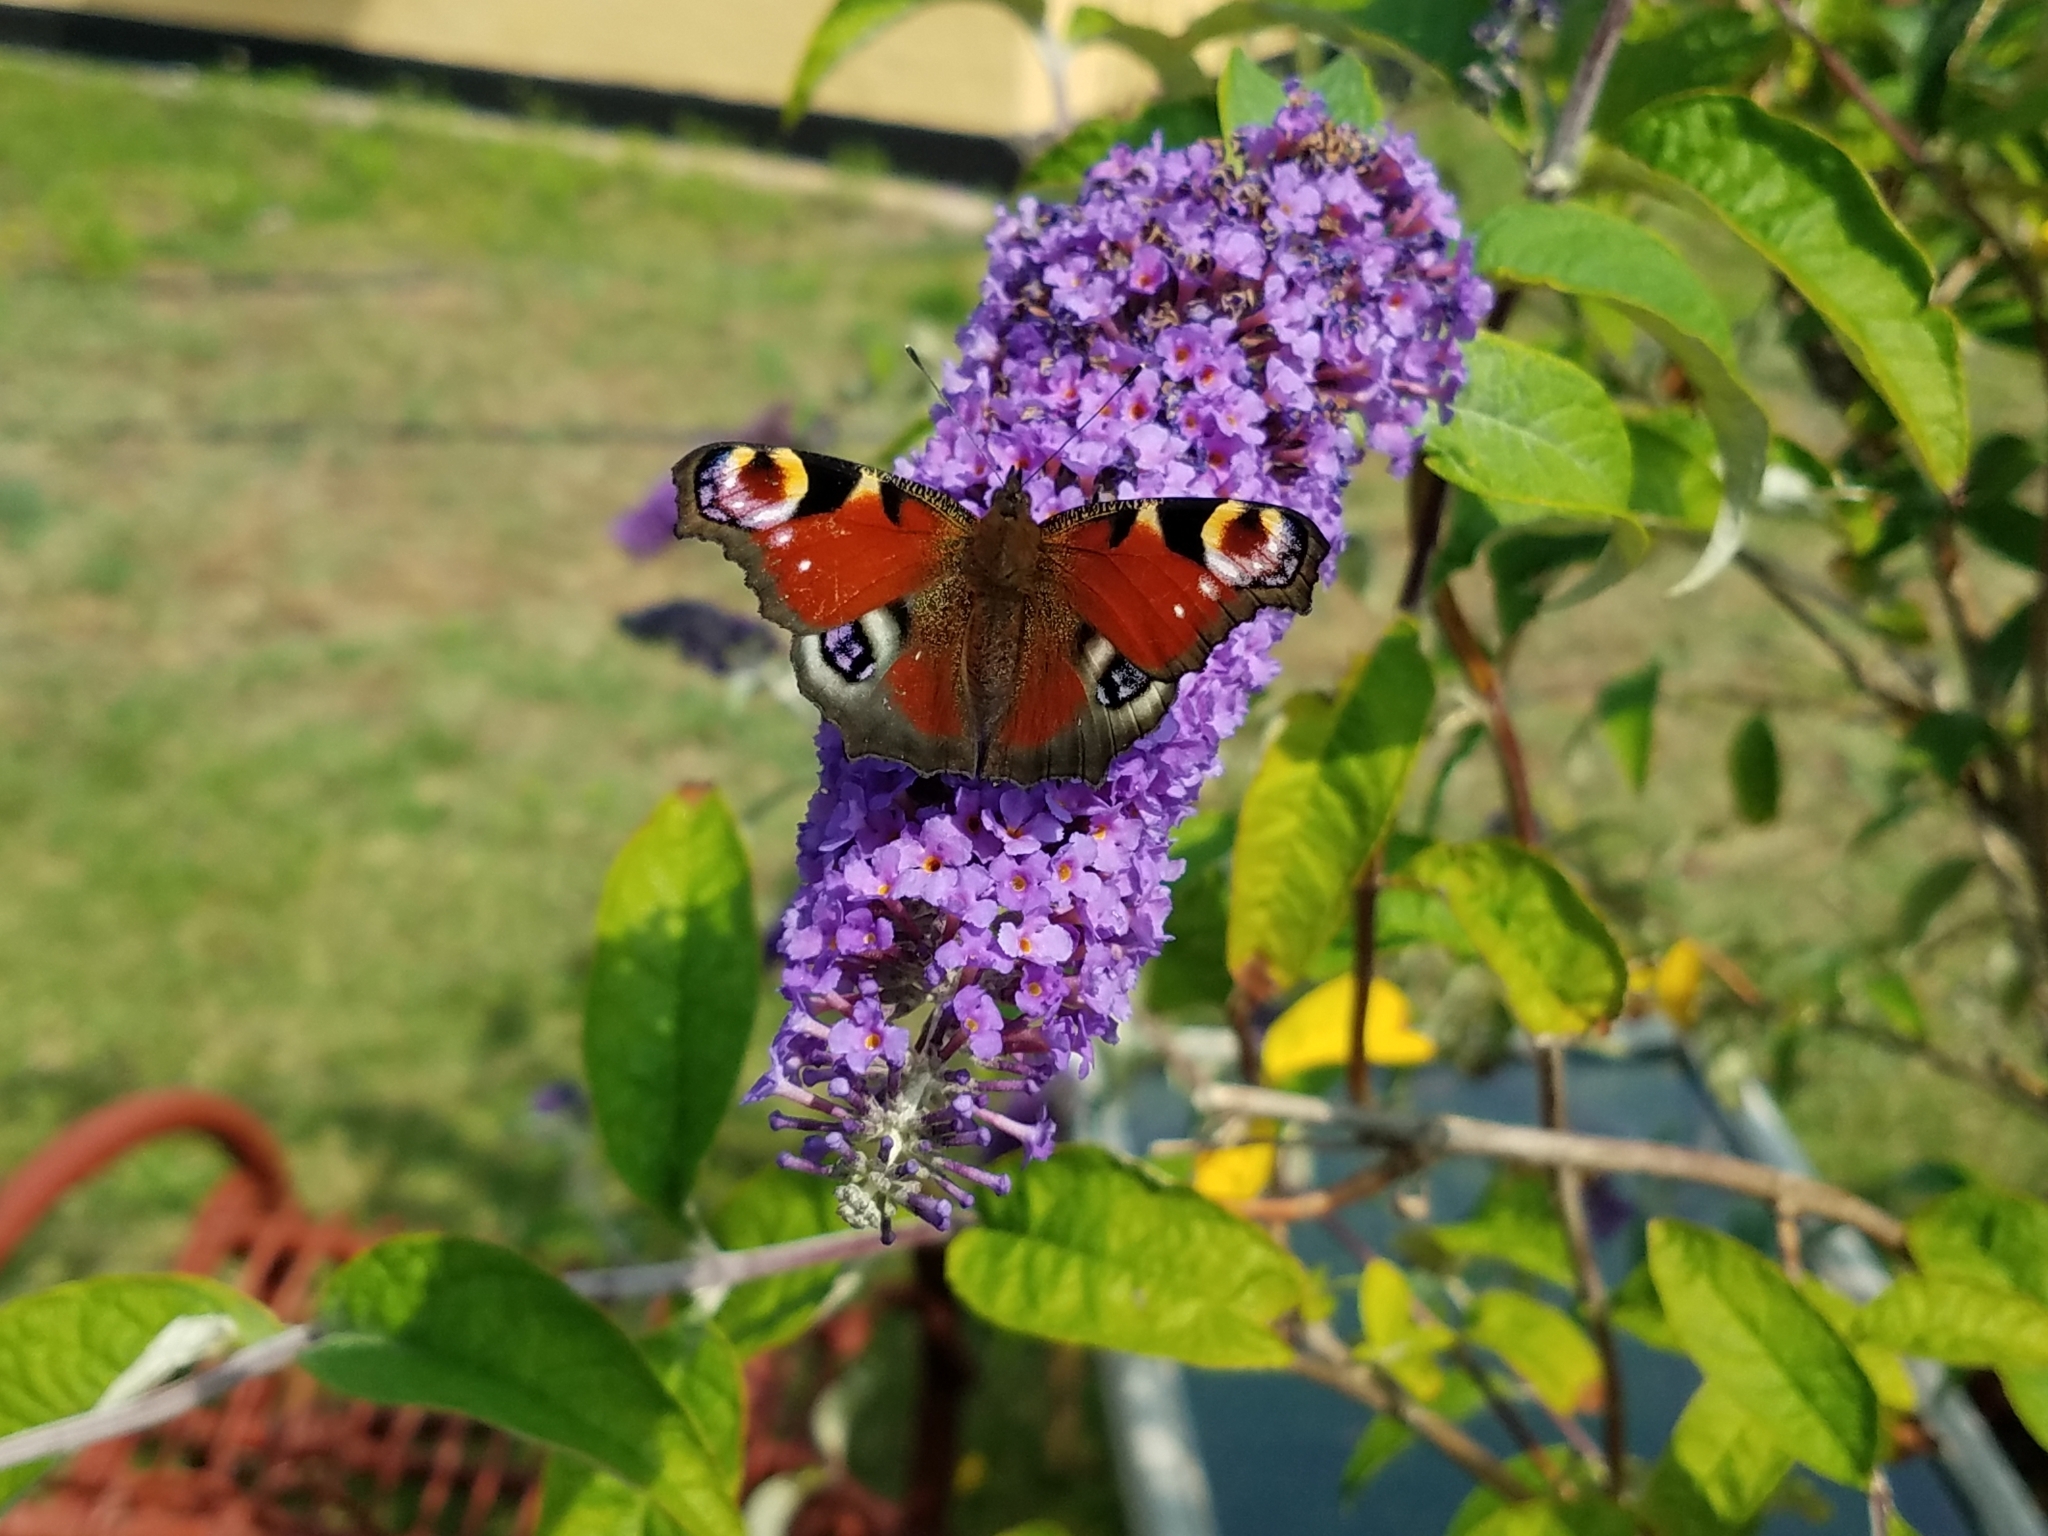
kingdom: Animalia
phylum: Arthropoda
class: Insecta
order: Lepidoptera
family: Nymphalidae
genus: Aglais
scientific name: Aglais io
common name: Peacock
